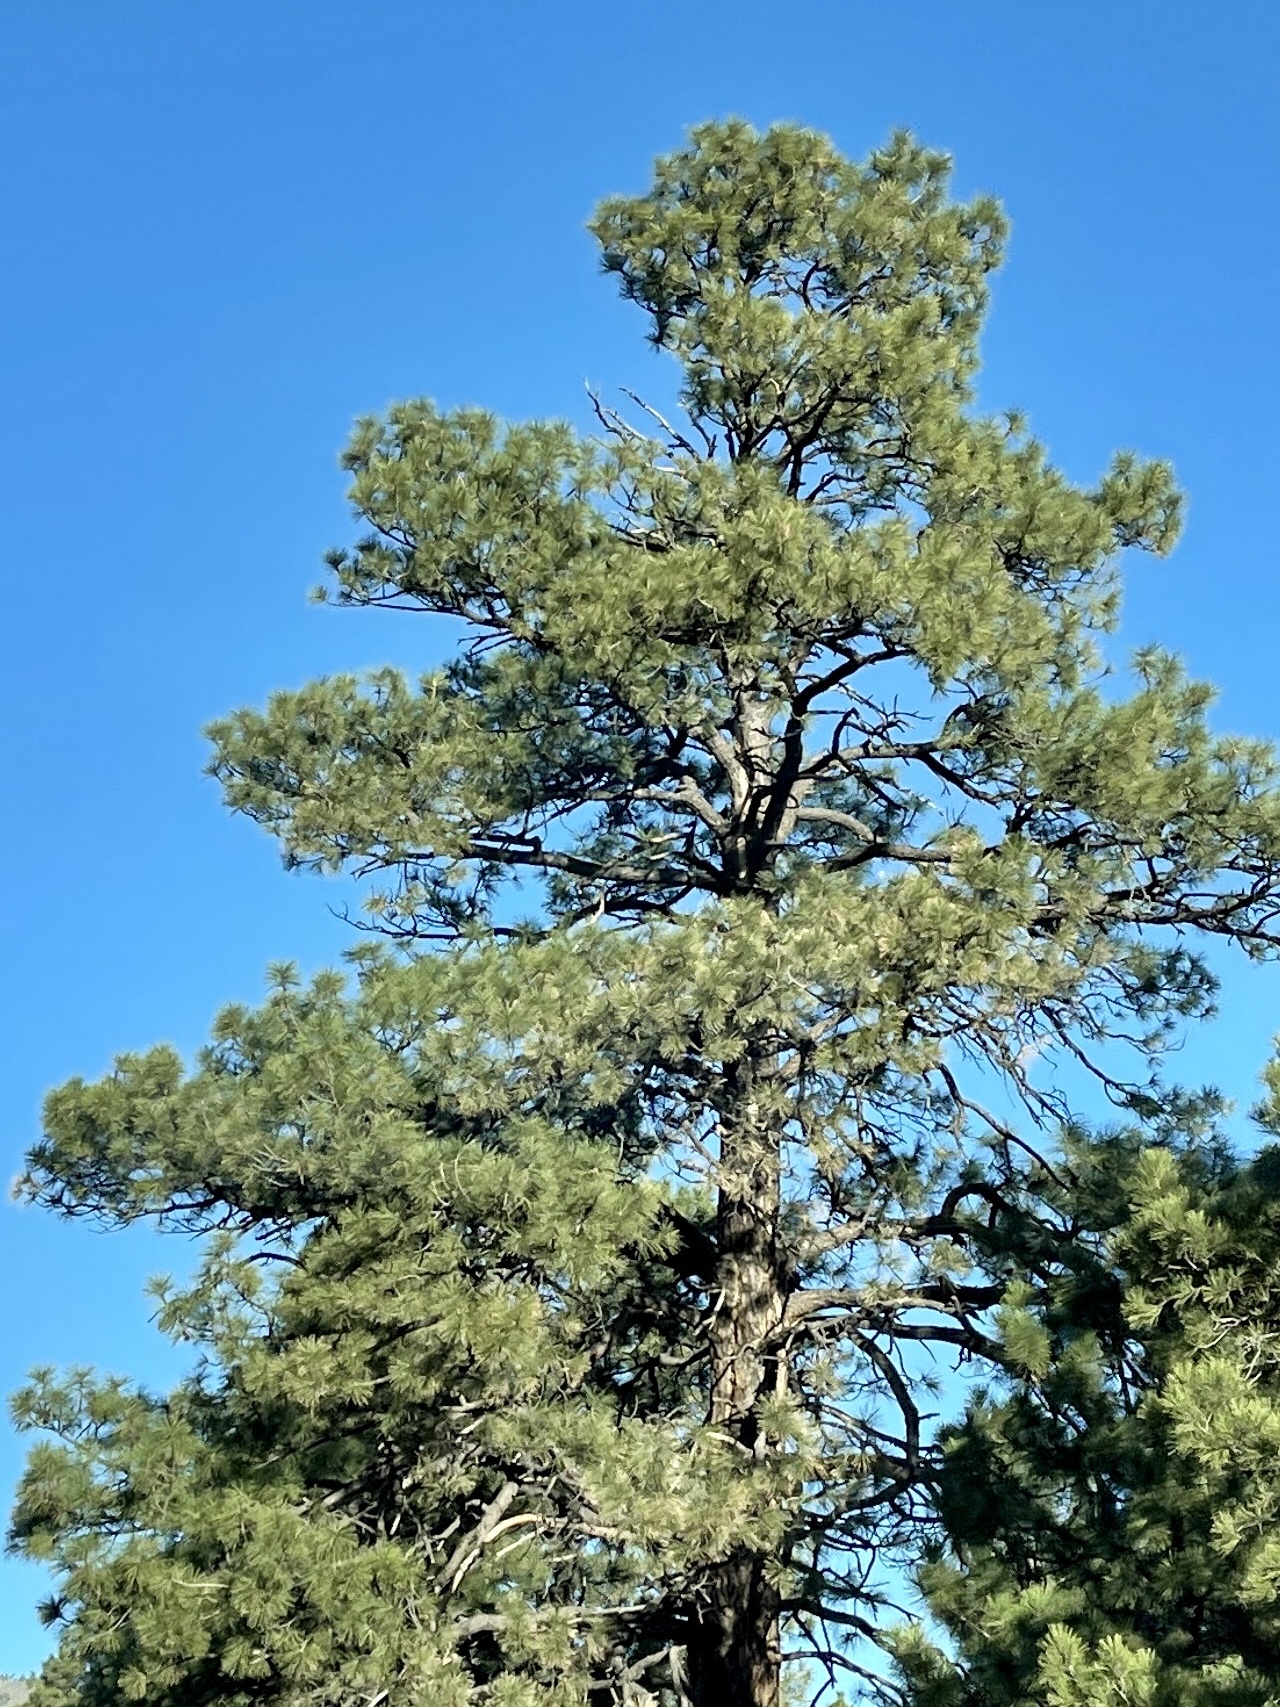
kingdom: Plantae
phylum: Tracheophyta
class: Pinopsida
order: Pinales
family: Pinaceae
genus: Pinus
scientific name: Pinus ponderosa
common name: Western yellow-pine
